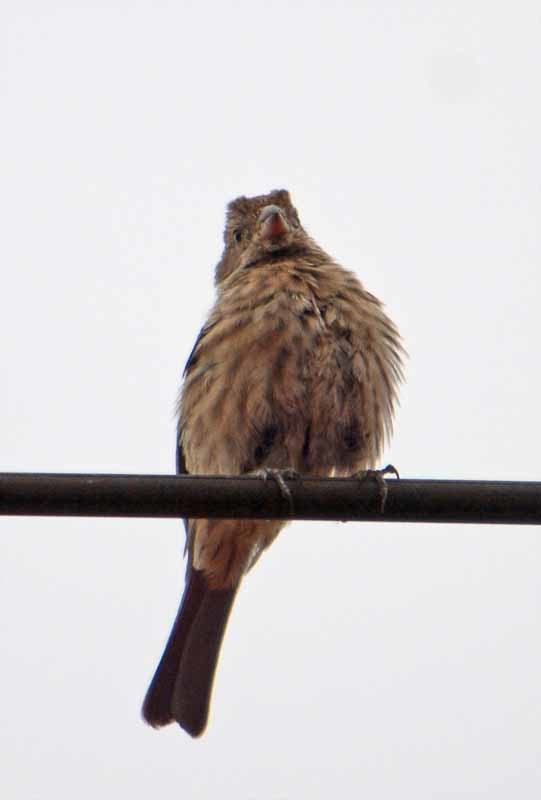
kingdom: Animalia
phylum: Chordata
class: Aves
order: Passeriformes
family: Fringillidae
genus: Haemorhous
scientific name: Haemorhous mexicanus
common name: House finch
